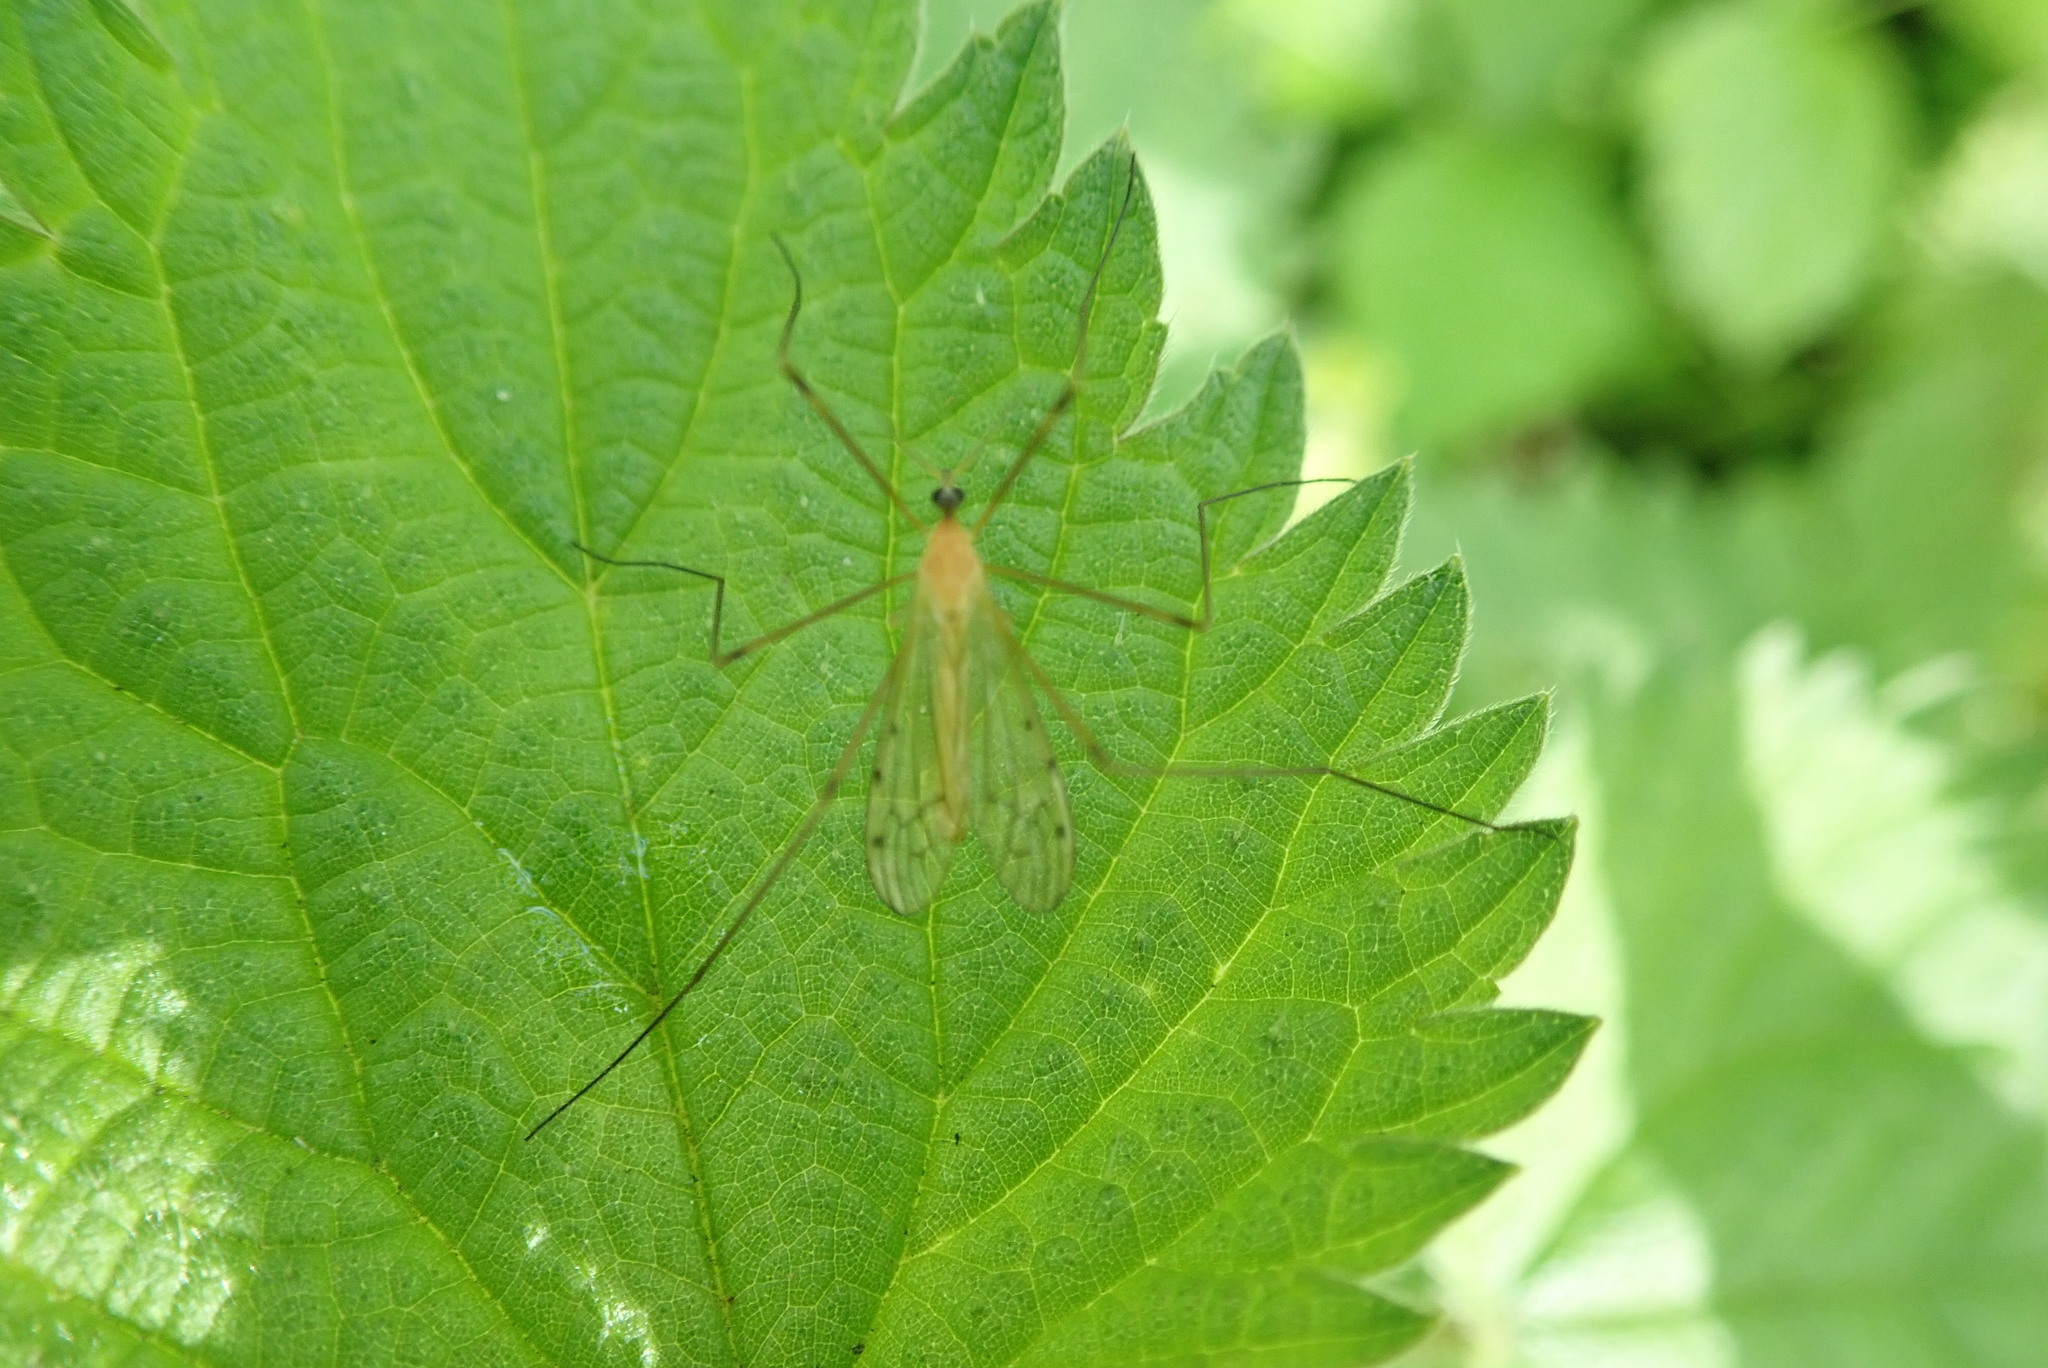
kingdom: Animalia
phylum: Arthropoda
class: Insecta
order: Diptera
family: Limoniidae
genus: Limonia
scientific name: Limonia phragmitidis
